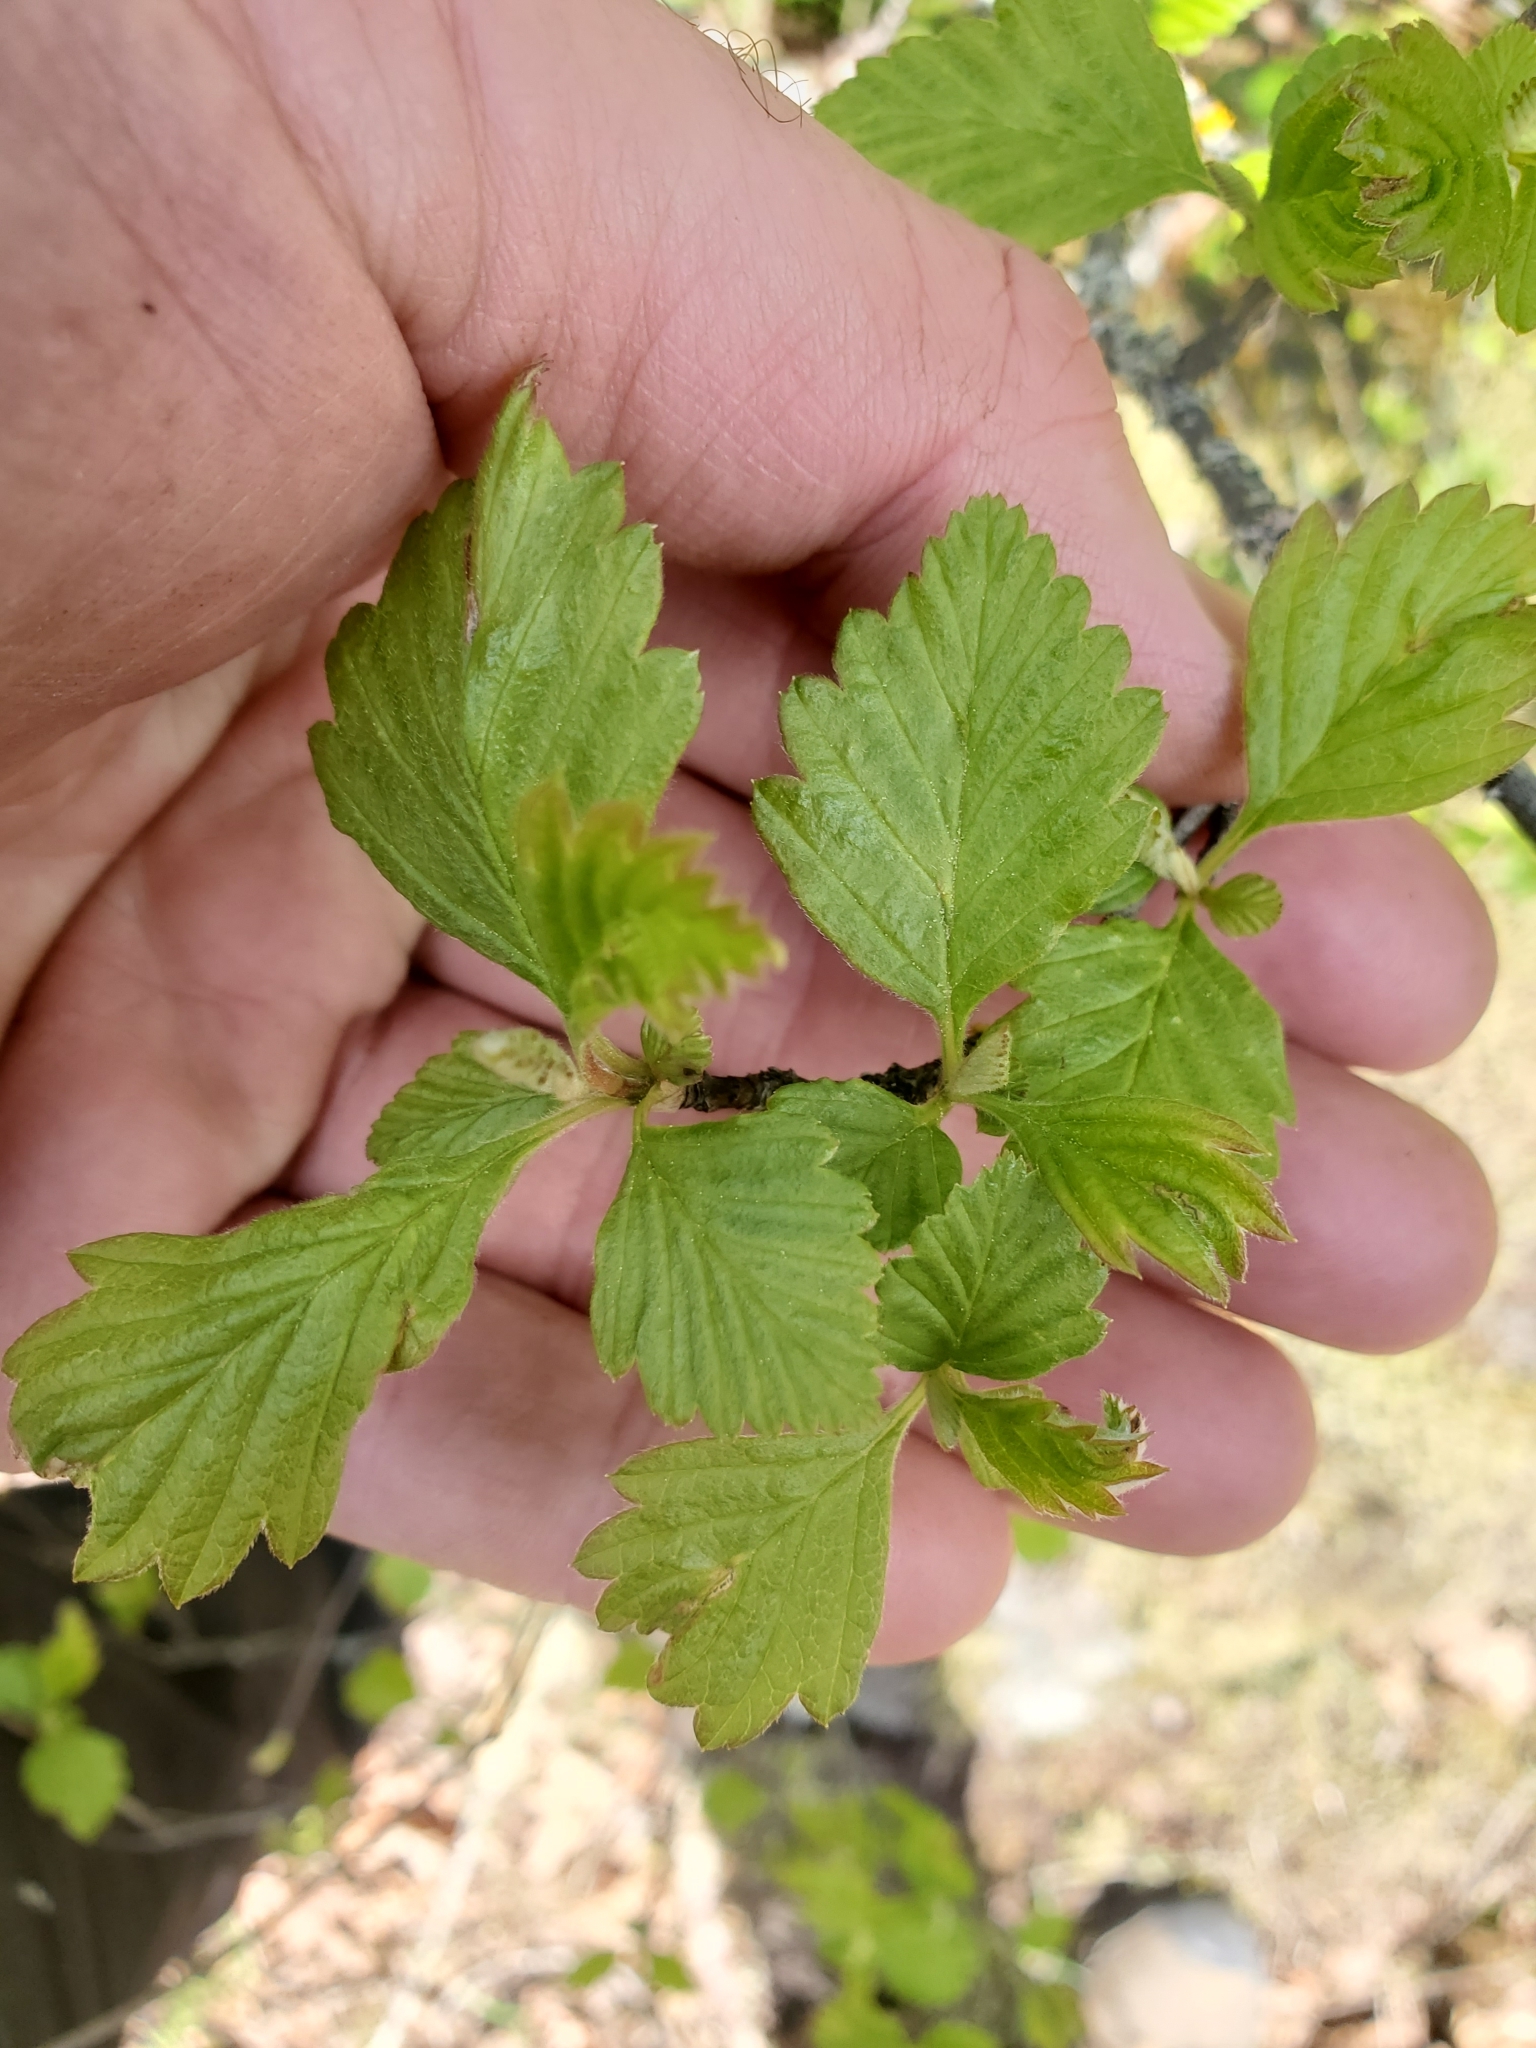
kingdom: Plantae
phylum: Tracheophyta
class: Magnoliopsida
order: Rosales
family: Rosaceae
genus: Holodiscus
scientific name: Holodiscus discolor
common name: Oceanspray
